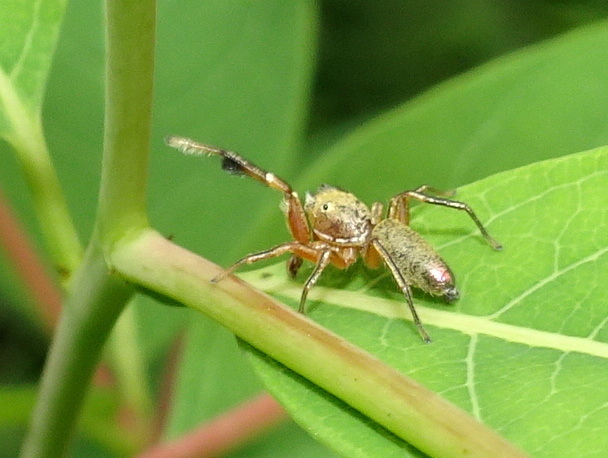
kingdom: Animalia
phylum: Arthropoda
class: Arachnida
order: Araneae
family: Salticidae
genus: Tutelina
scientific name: Tutelina elegans
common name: Thin-spined jumping spider
